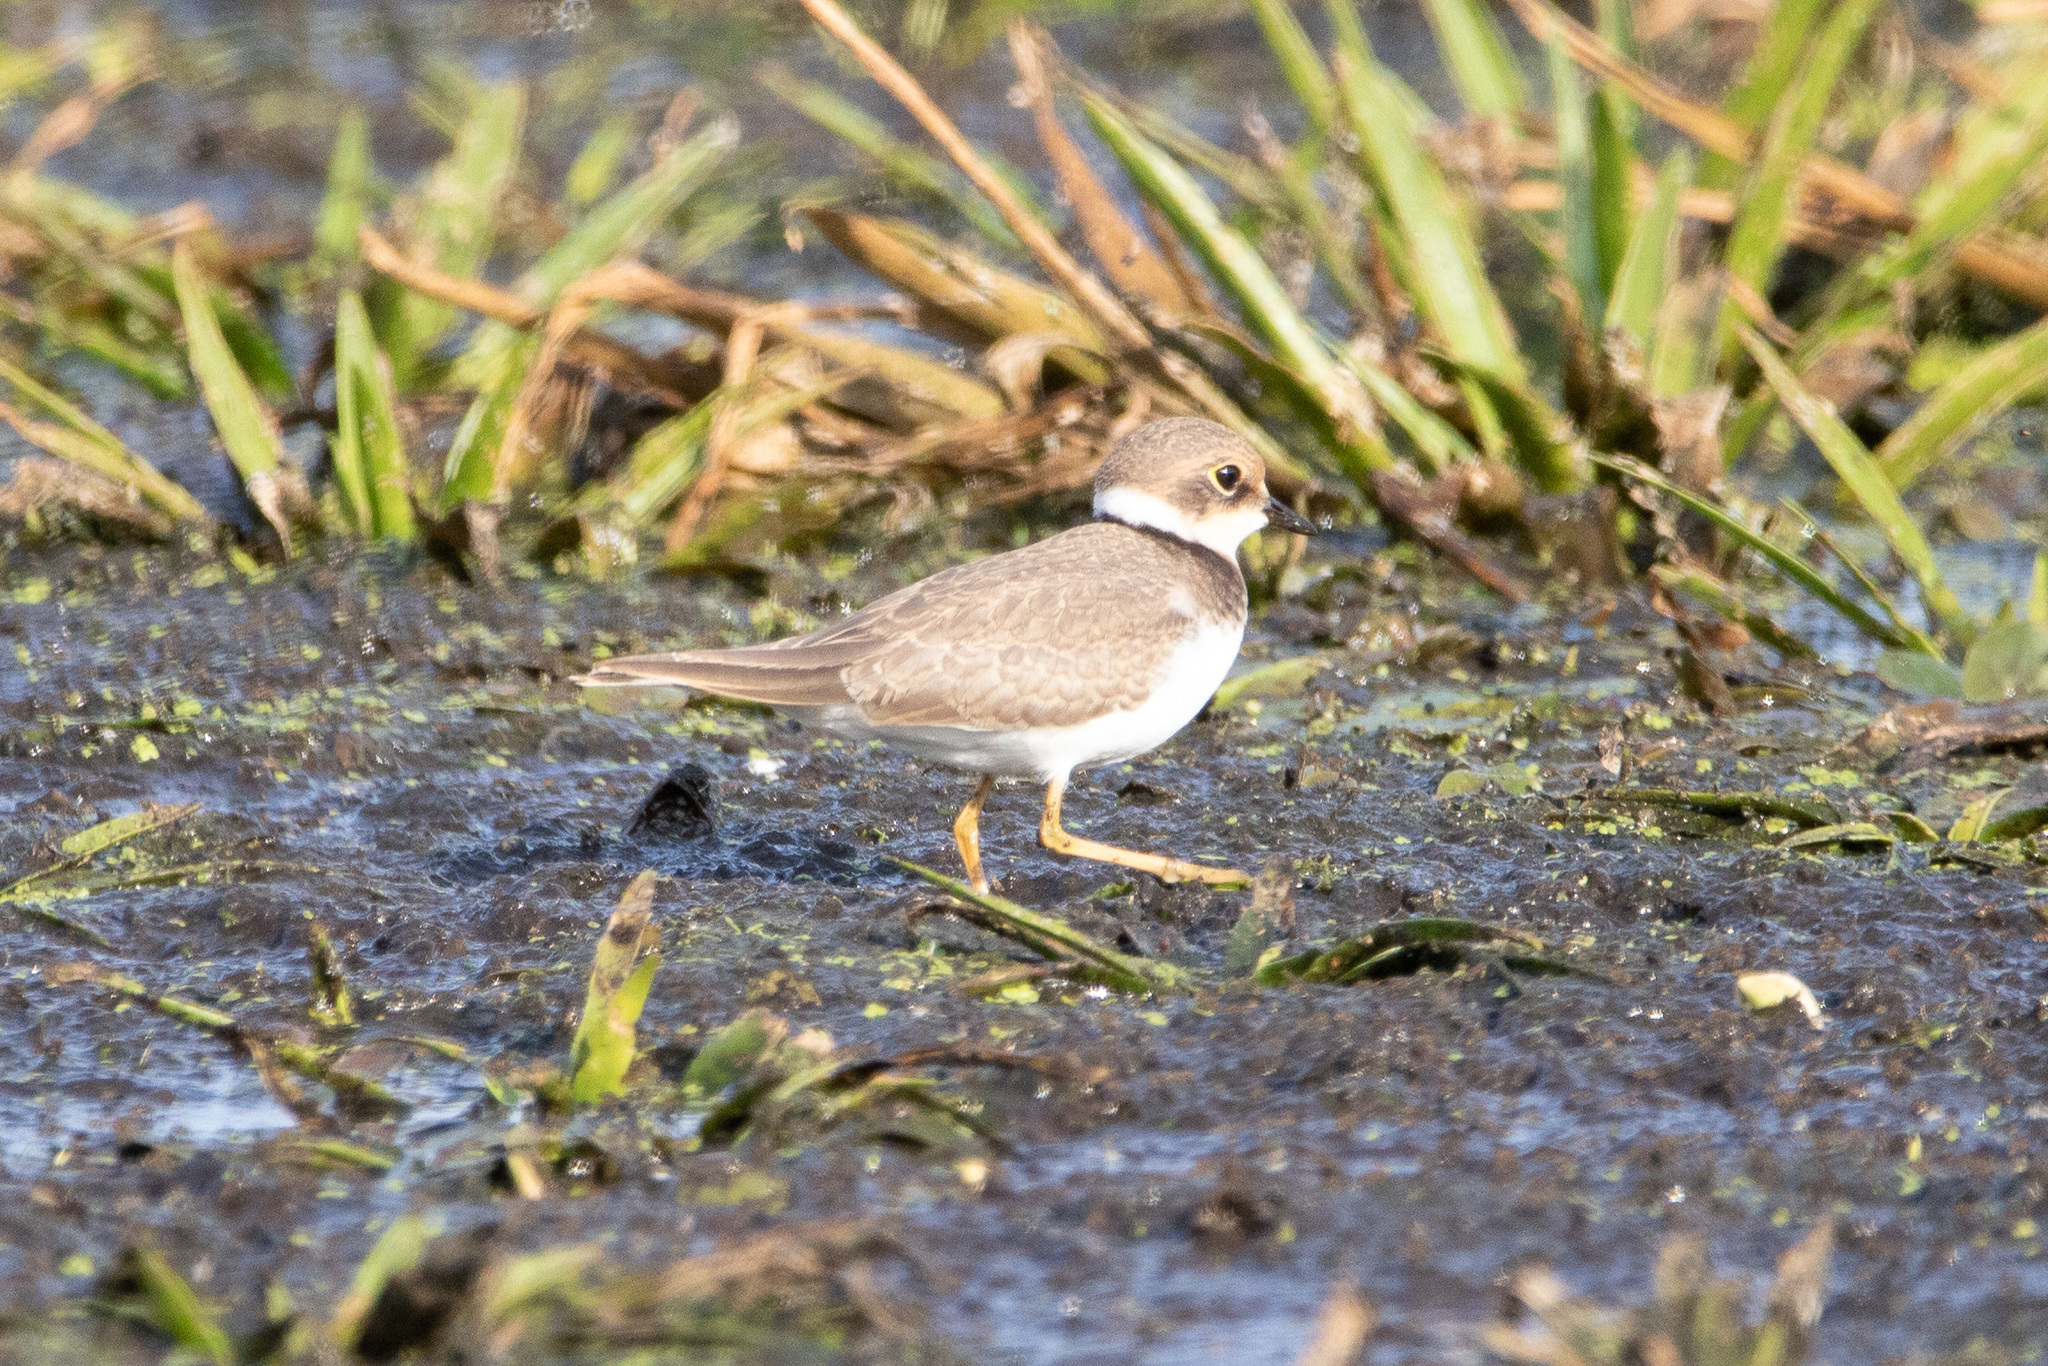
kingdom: Animalia
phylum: Chordata
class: Aves
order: Charadriiformes
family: Charadriidae
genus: Charadrius
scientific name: Charadrius dubius
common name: Little ringed plover
